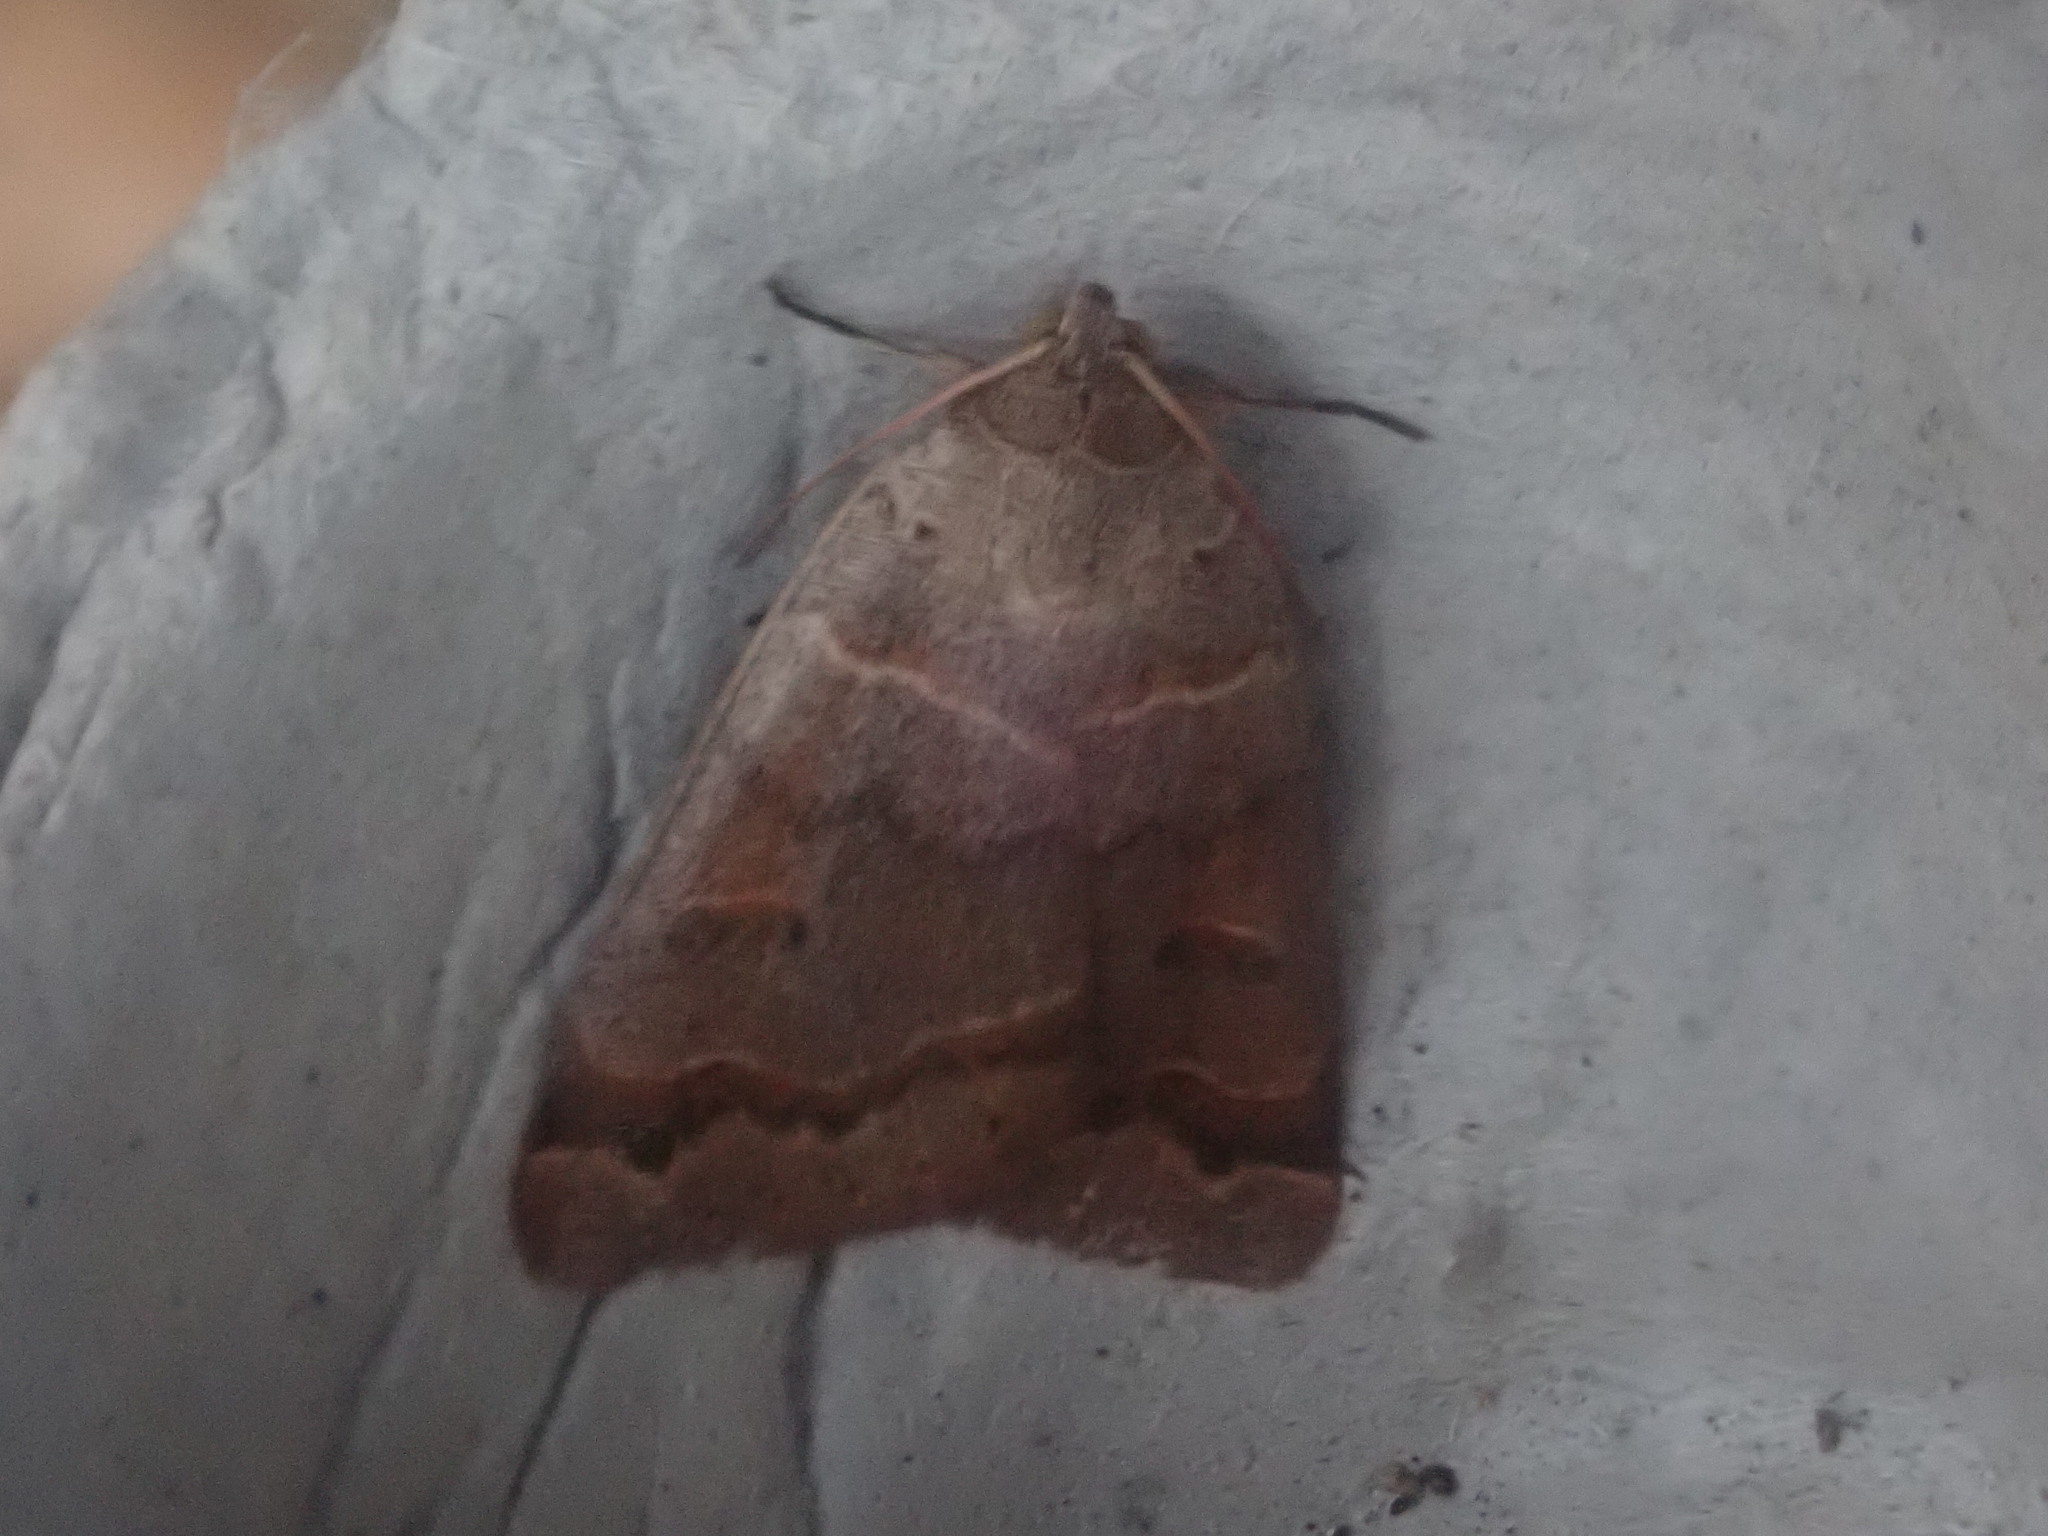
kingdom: Animalia
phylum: Arthropoda
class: Insecta
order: Lepidoptera
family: Erebidae
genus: Phoberia
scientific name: Phoberia atomaris
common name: Common oak moth
